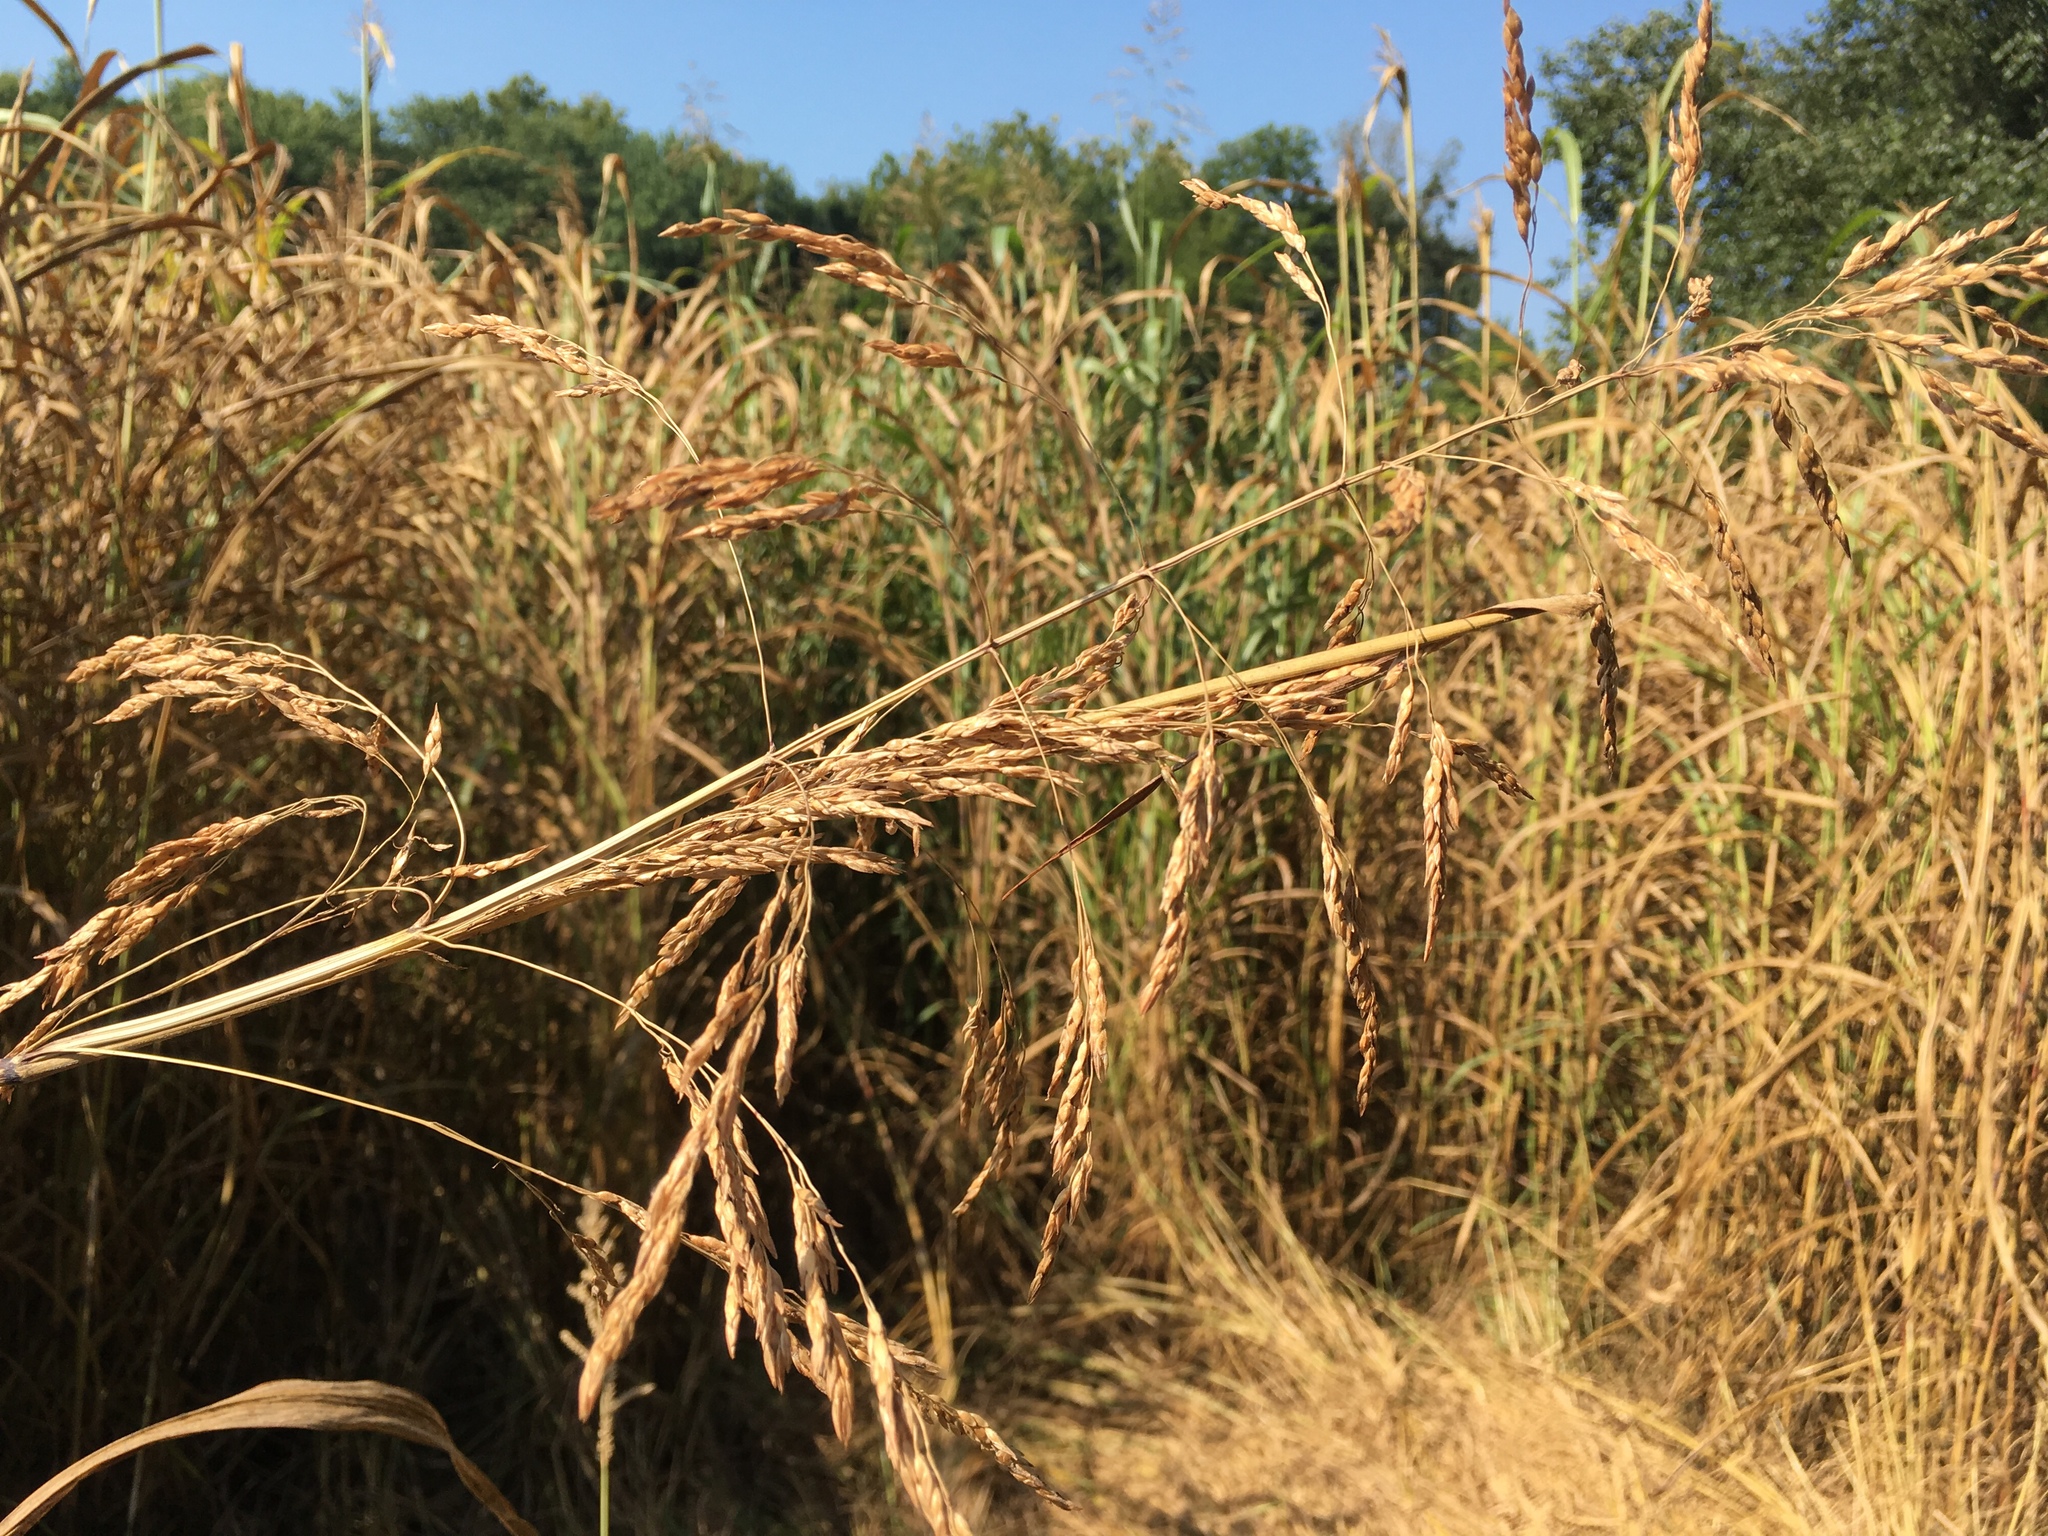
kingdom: Plantae
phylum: Tracheophyta
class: Liliopsida
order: Poales
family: Poaceae
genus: Sorghum
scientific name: Sorghum halepense
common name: Johnson-grass
